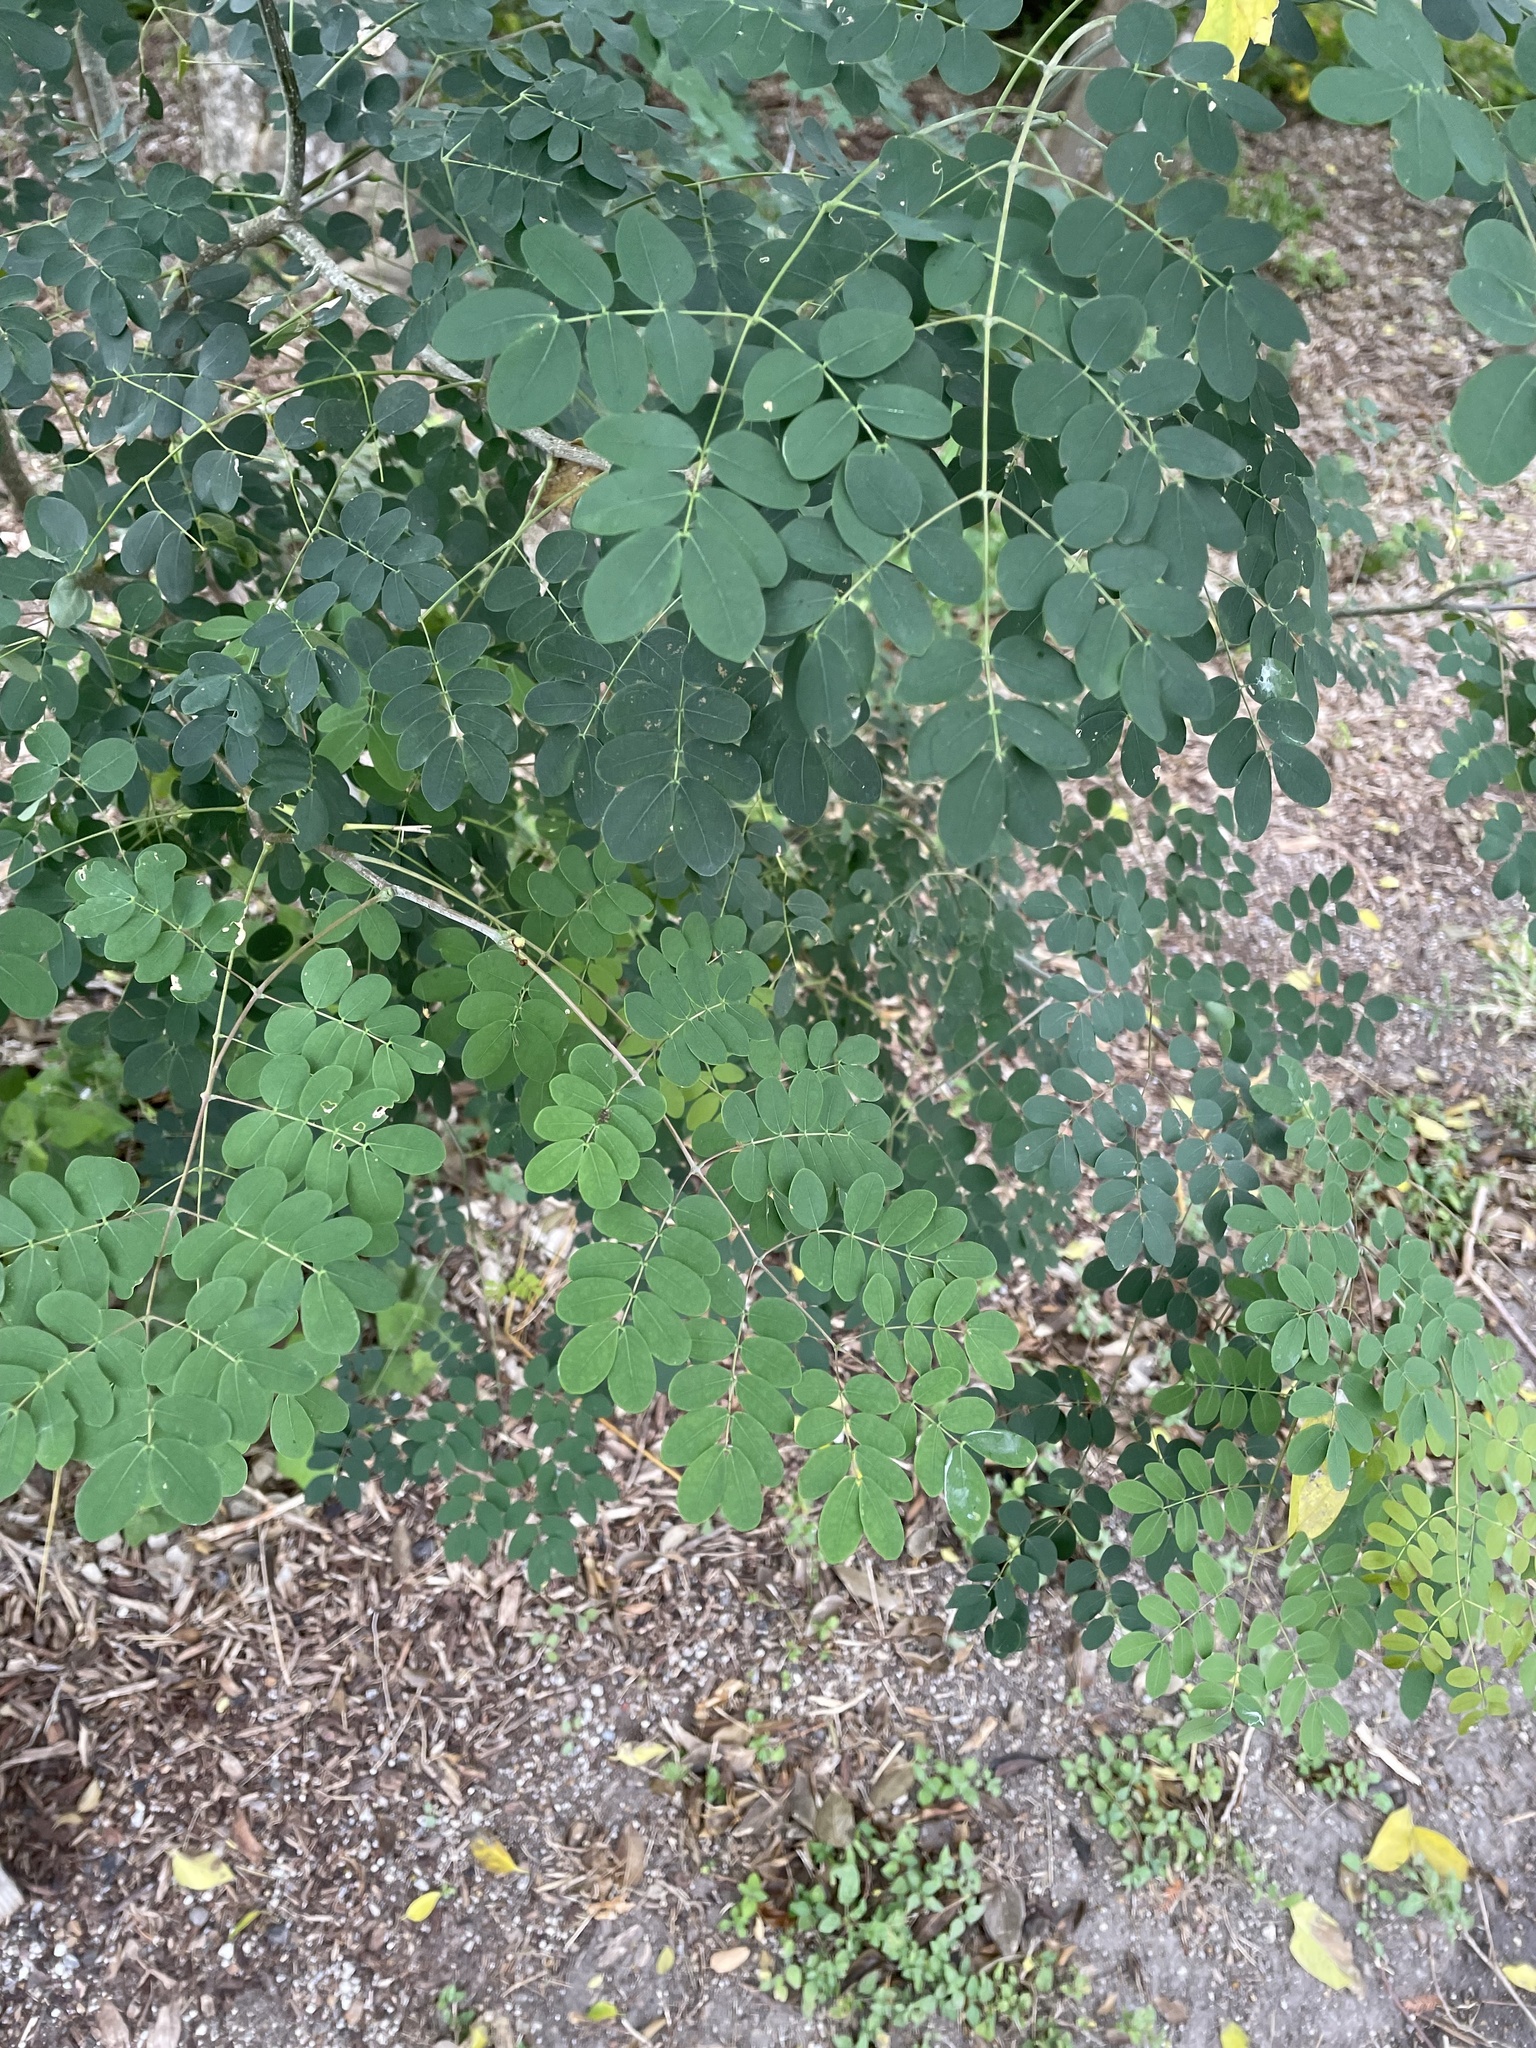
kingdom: Plantae
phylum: Tracheophyta
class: Magnoliopsida
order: Fabales
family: Fabaceae
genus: Erythrostemon
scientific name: Erythrostemon mexicanus
